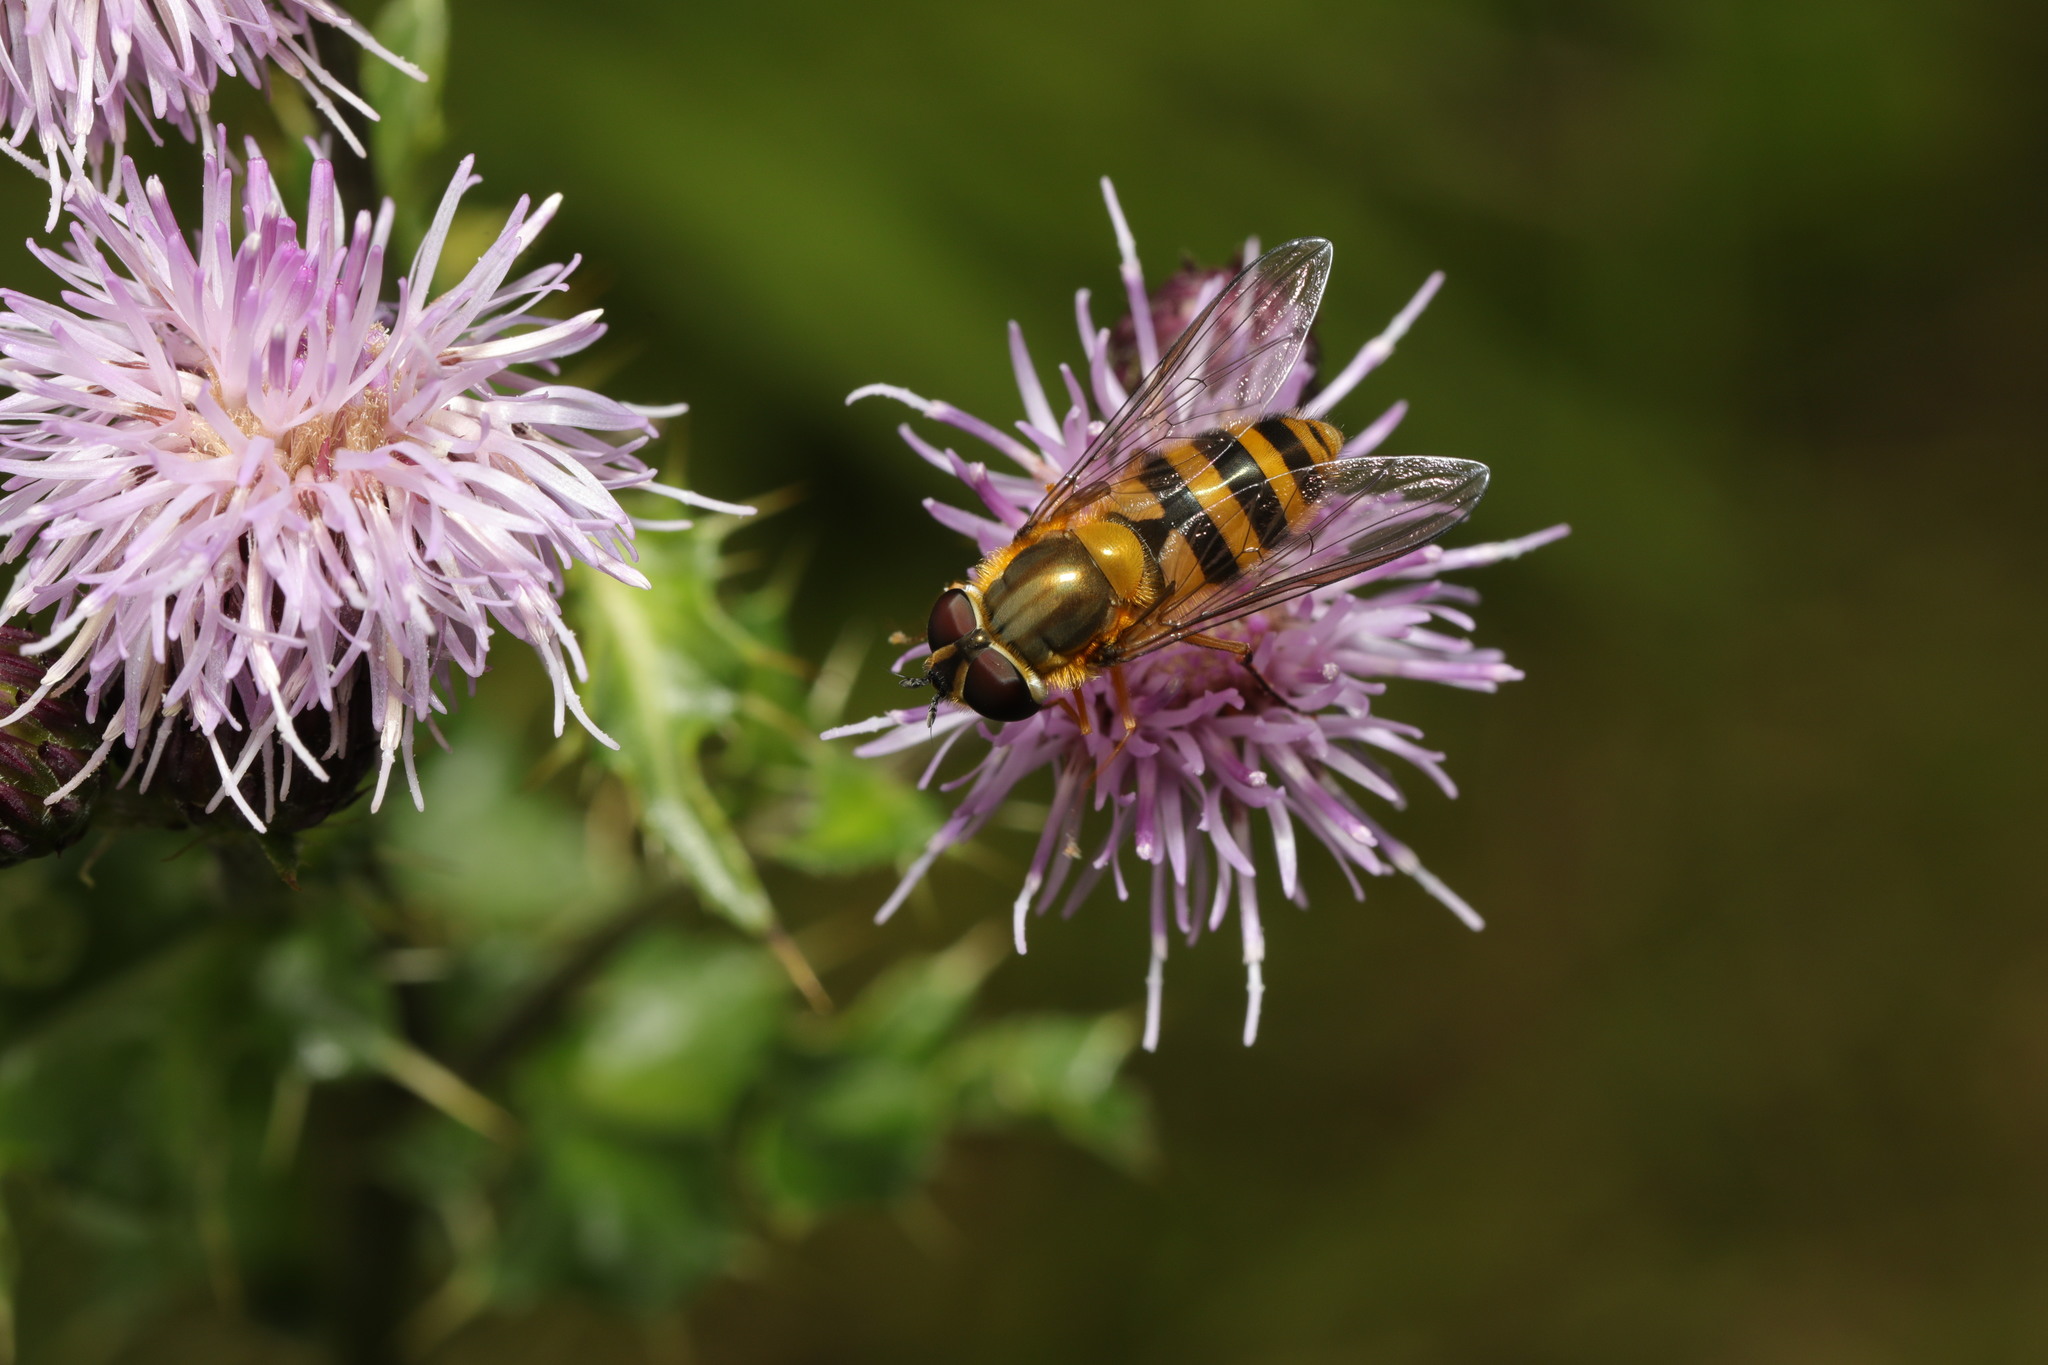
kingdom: Animalia
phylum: Arthropoda
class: Insecta
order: Diptera
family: Syrphidae
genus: Epistrophe
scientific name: Epistrophe grossulariae
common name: Black-horned smoothtail
